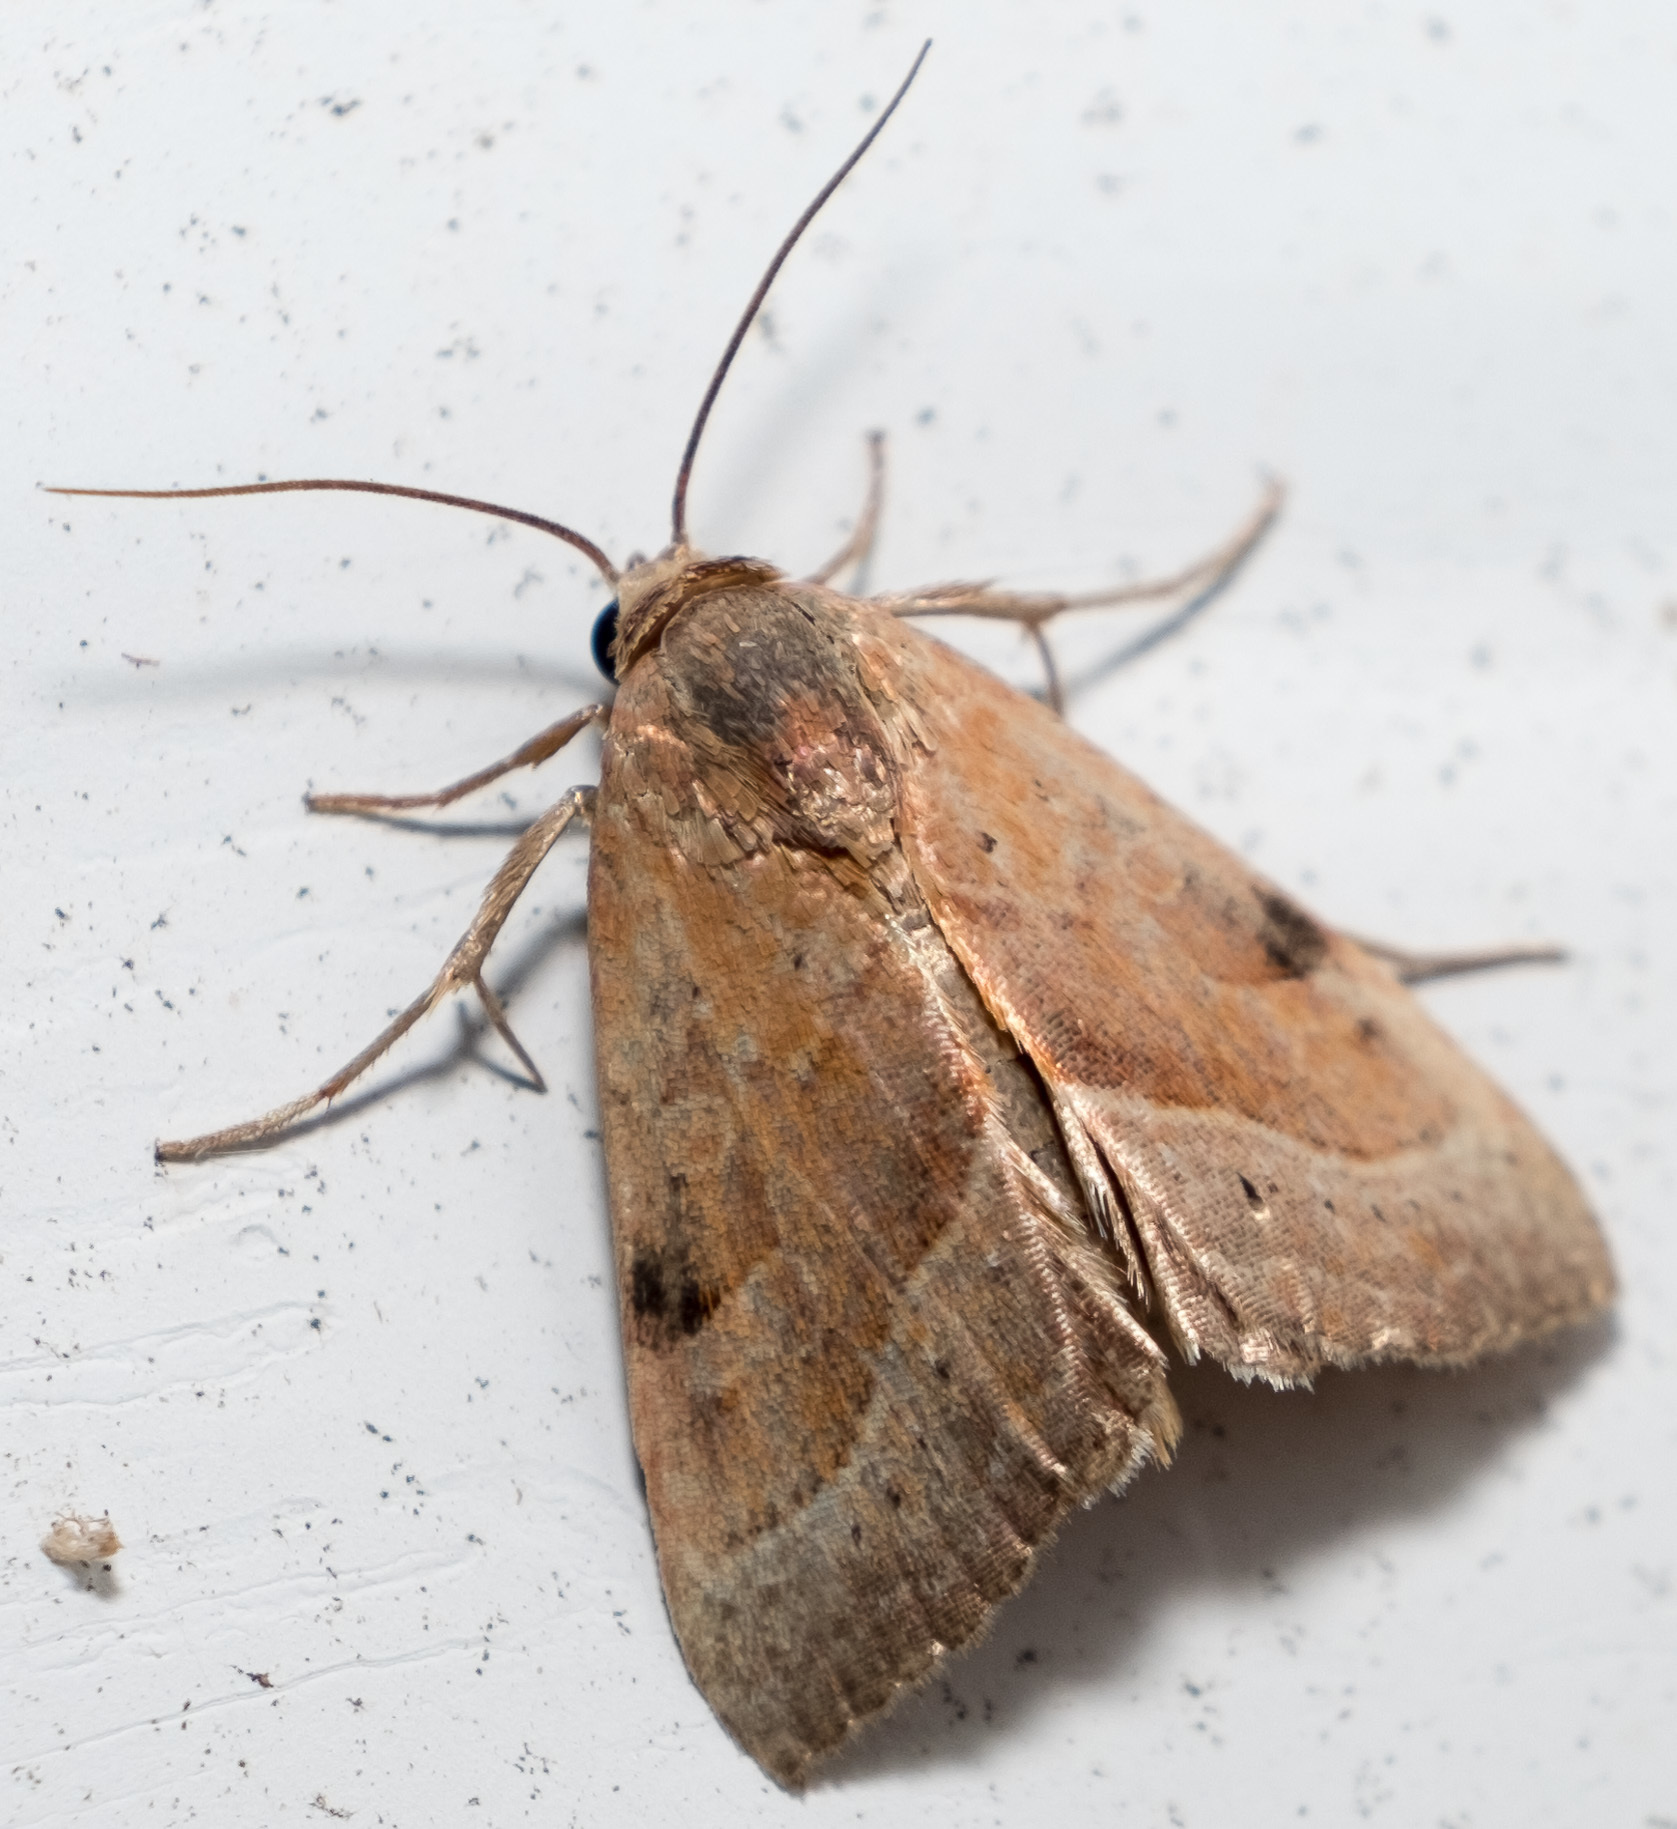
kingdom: Animalia
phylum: Arthropoda
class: Insecta
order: Lepidoptera
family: Noctuidae
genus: Galgula
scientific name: Galgula partita
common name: Wedgeling
